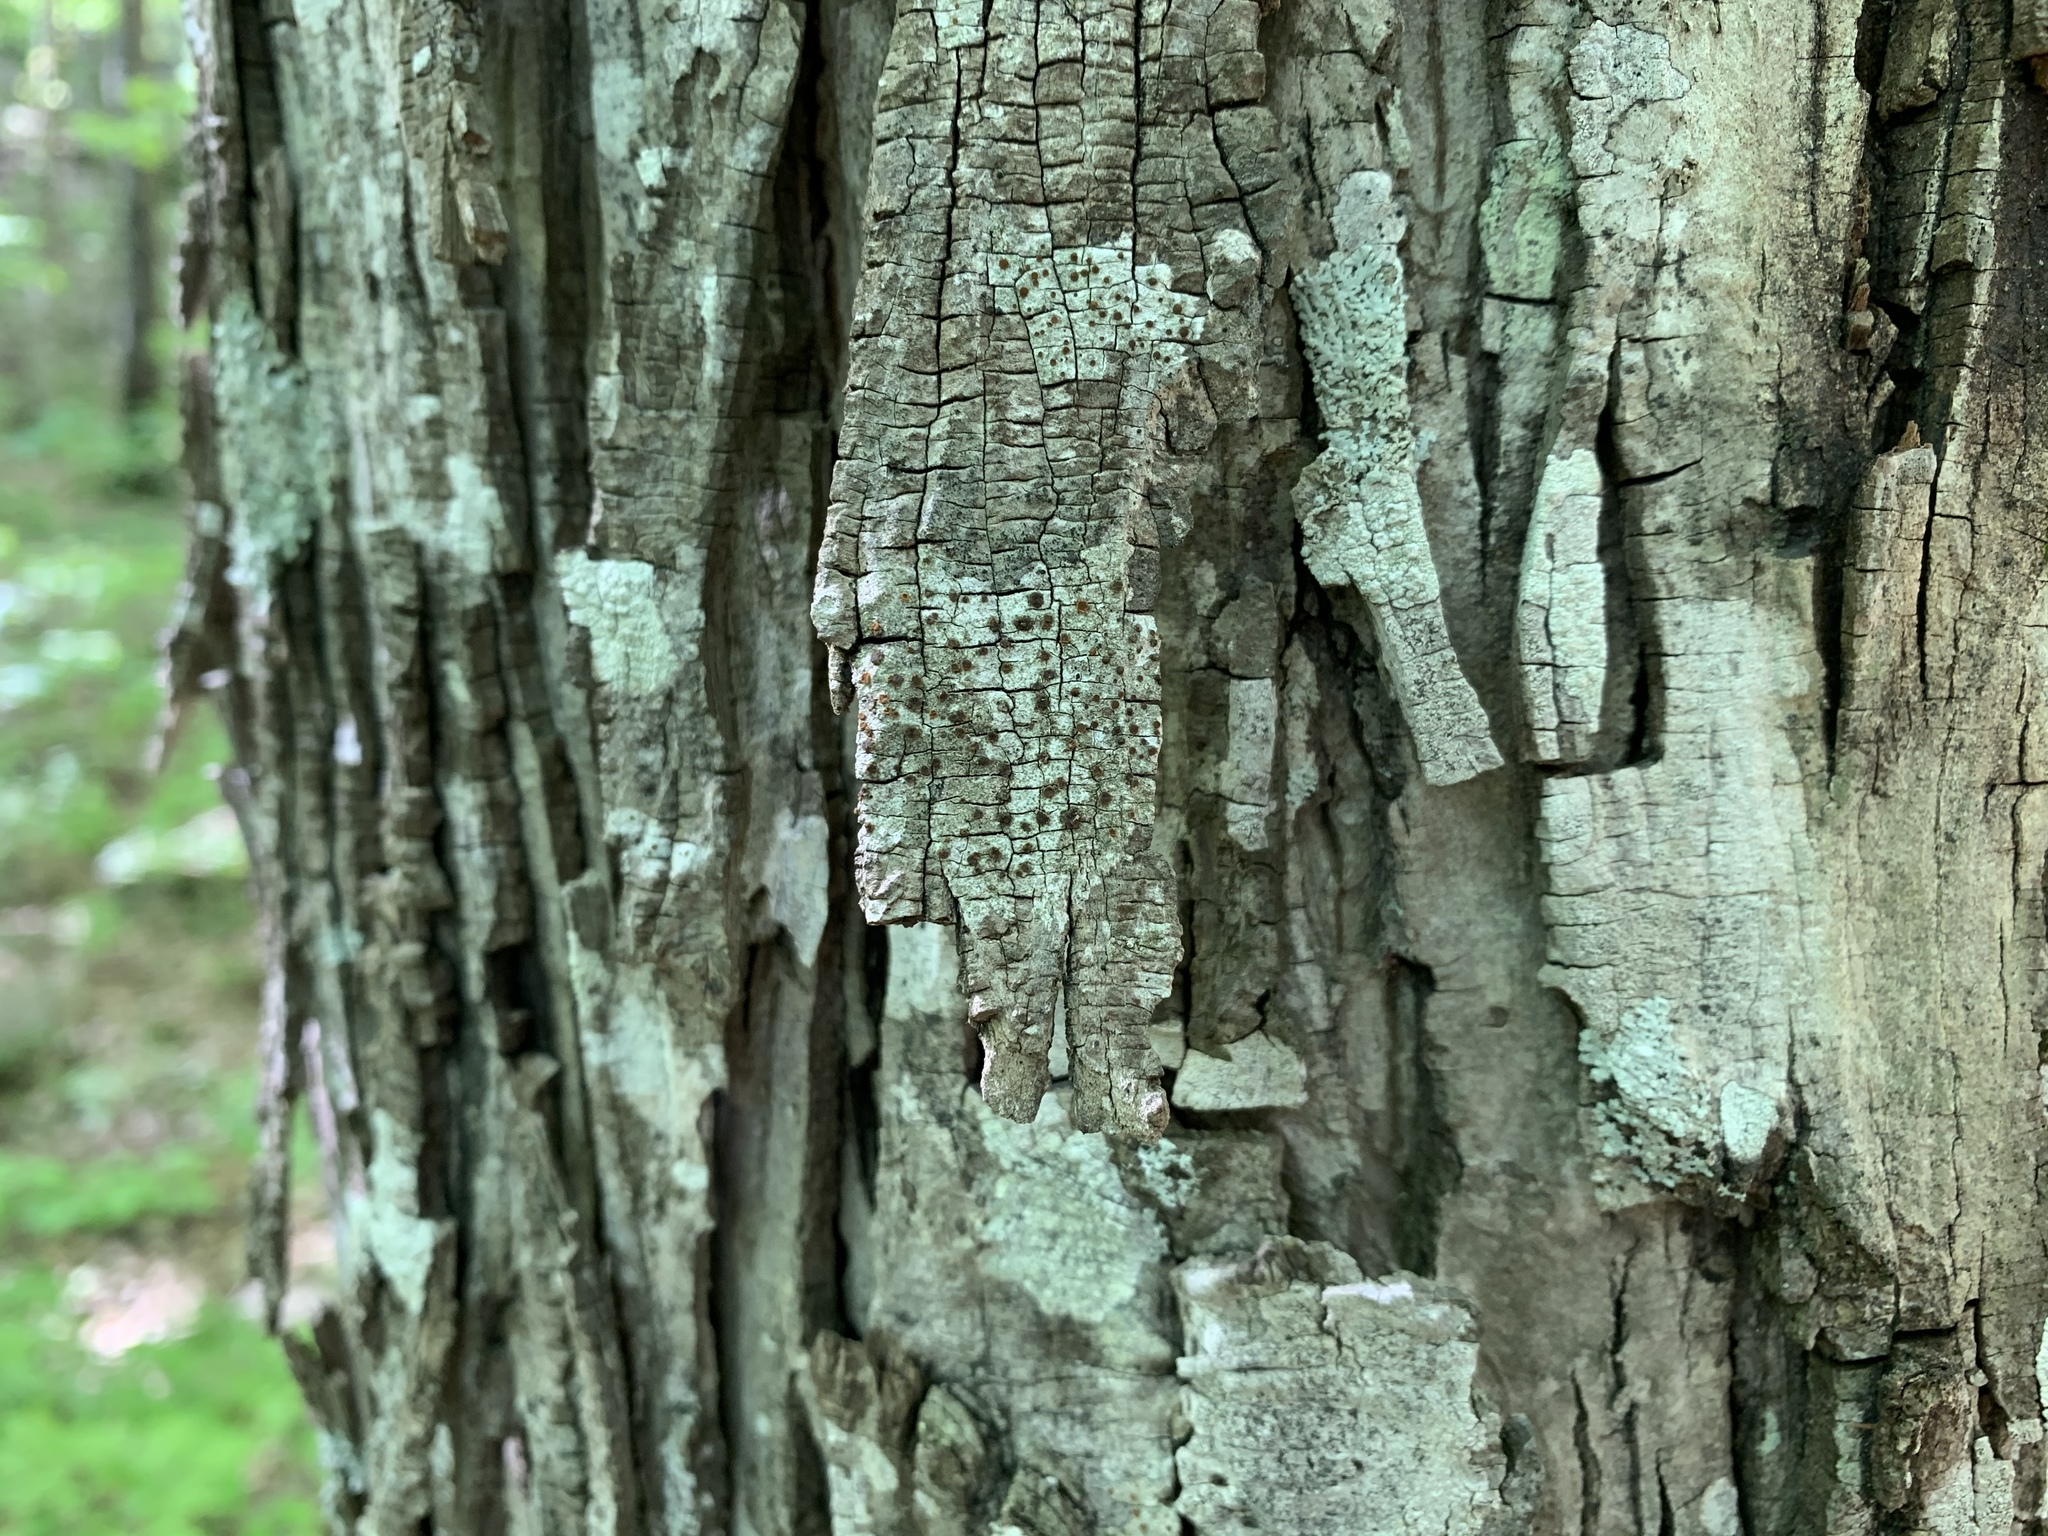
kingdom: Fungi
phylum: Ascomycota
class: Lecanoromycetes
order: Teloschistales
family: Teloschistaceae
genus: Obscuroplaca
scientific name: Obscuroplaca camptidia
